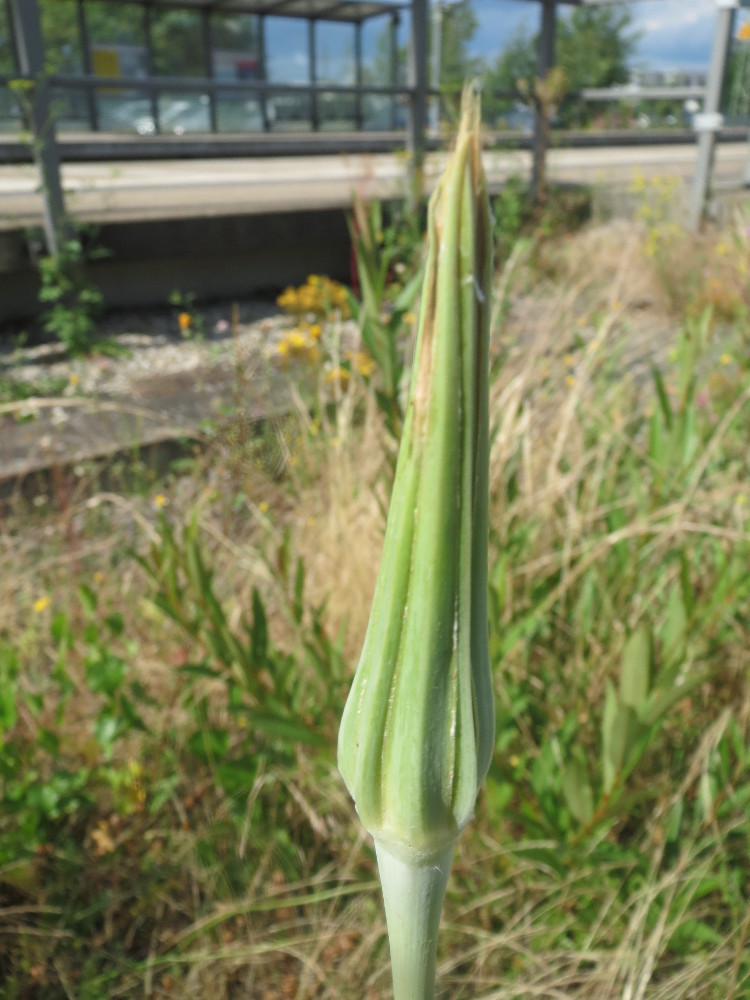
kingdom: Plantae
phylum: Tracheophyta
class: Magnoliopsida
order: Asterales
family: Asteraceae
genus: Tragopogon
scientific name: Tragopogon dubius
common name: Yellow salsify
